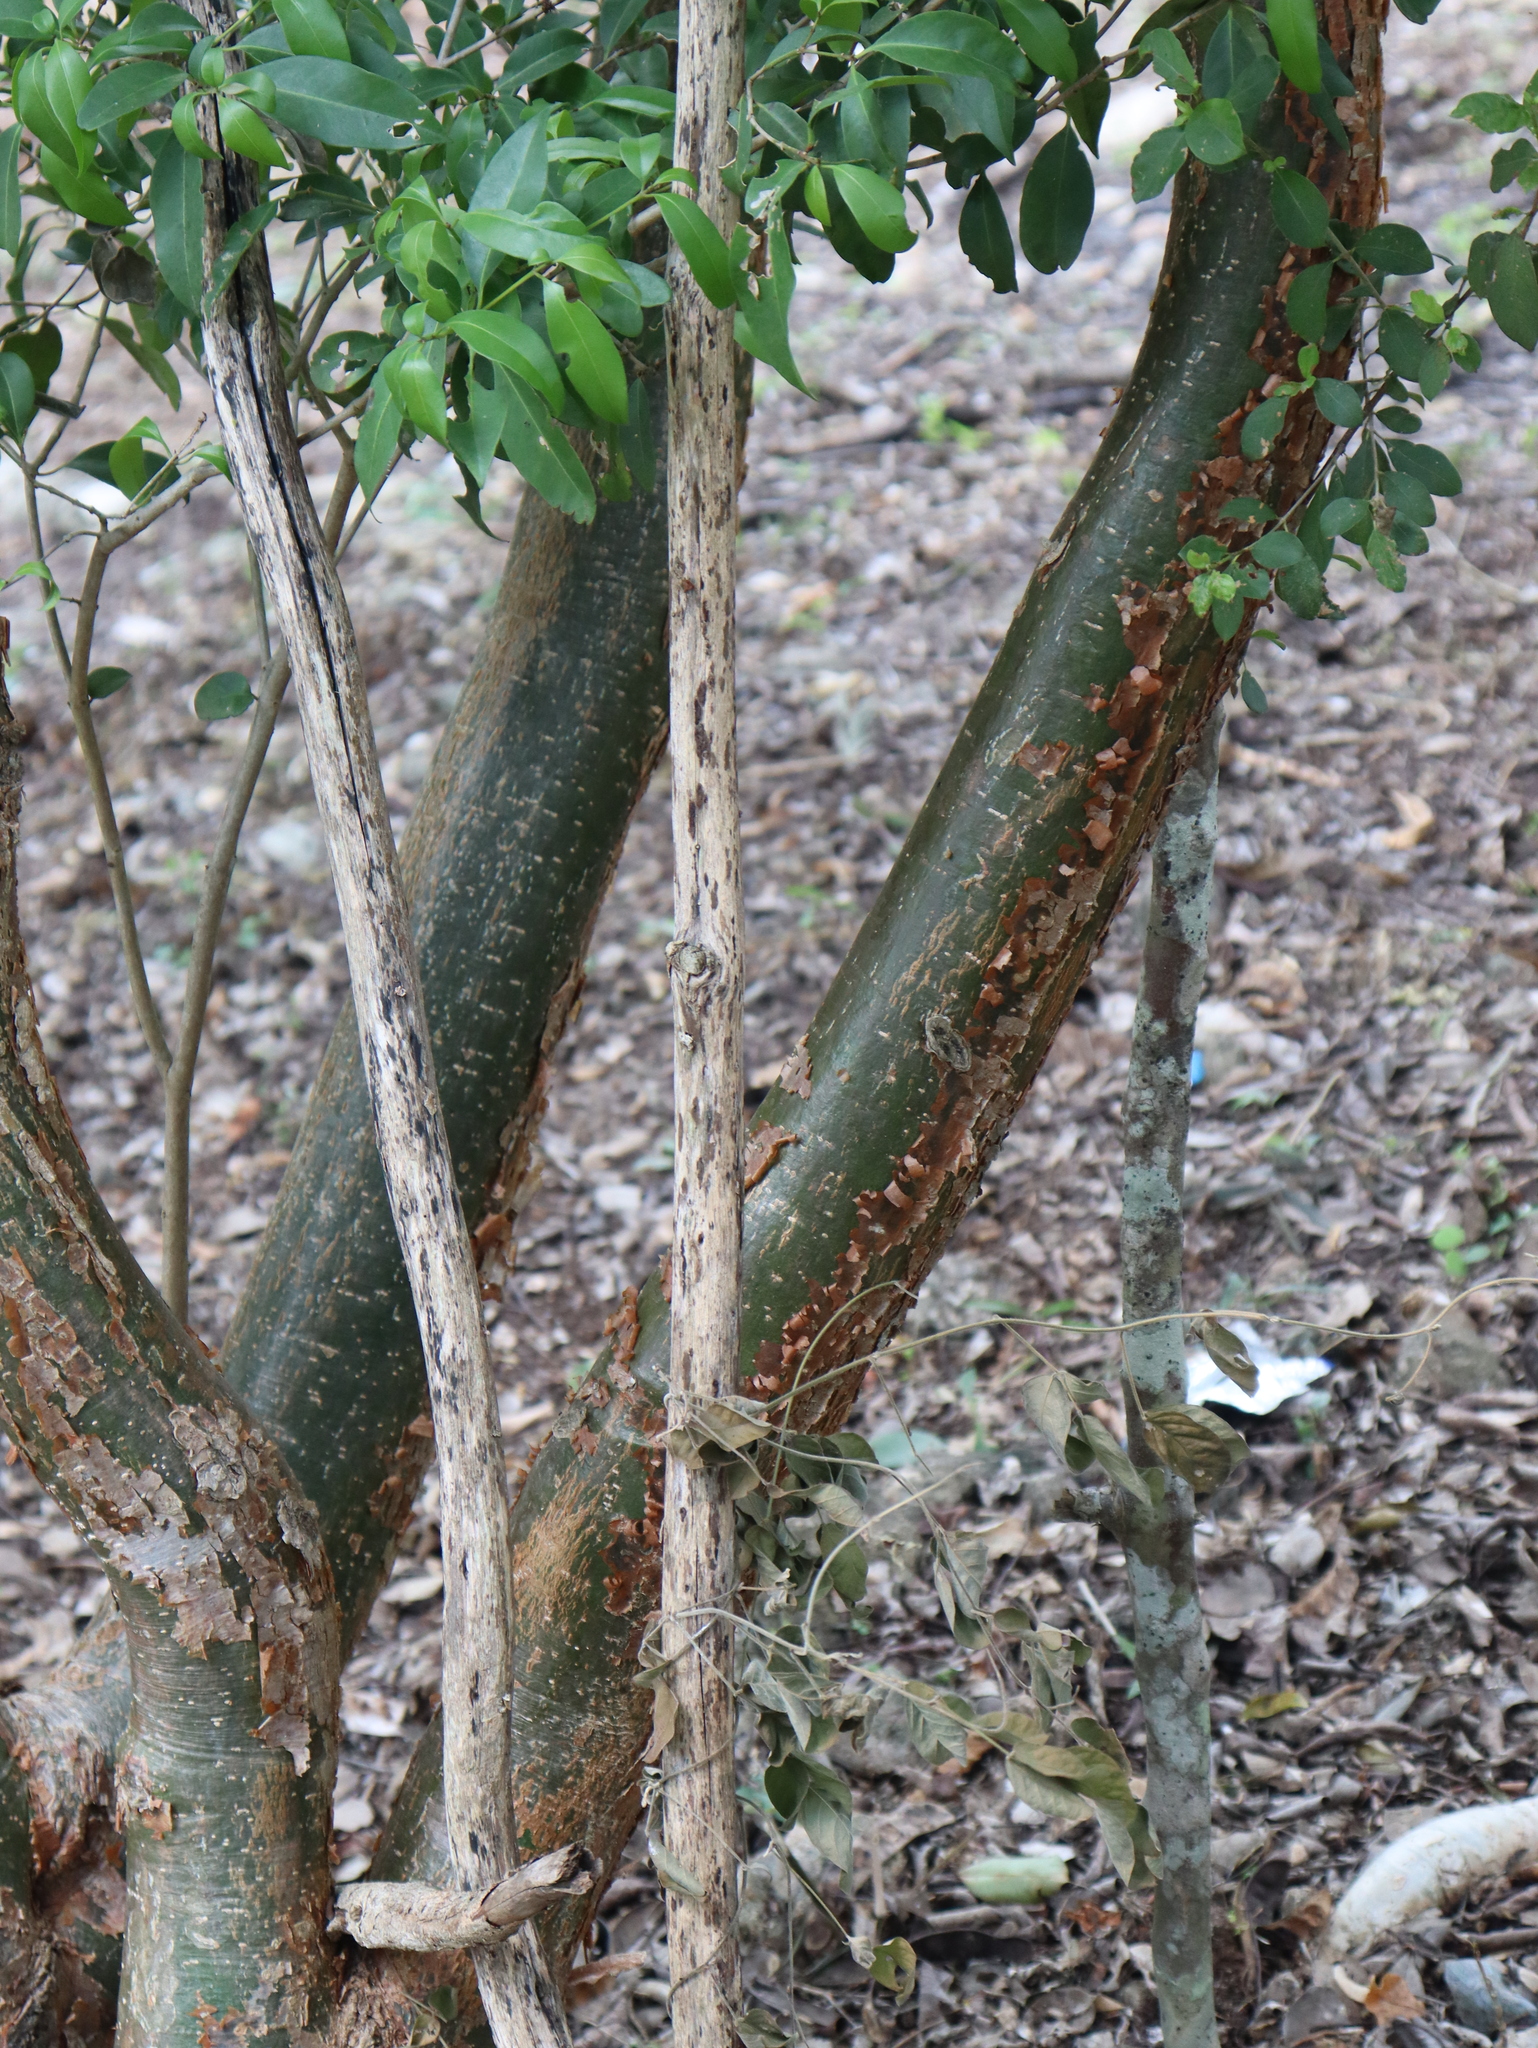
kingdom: Plantae
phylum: Tracheophyta
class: Magnoliopsida
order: Sapindales
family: Burseraceae
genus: Bursera
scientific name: Bursera simaruba
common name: Turpentine tree
